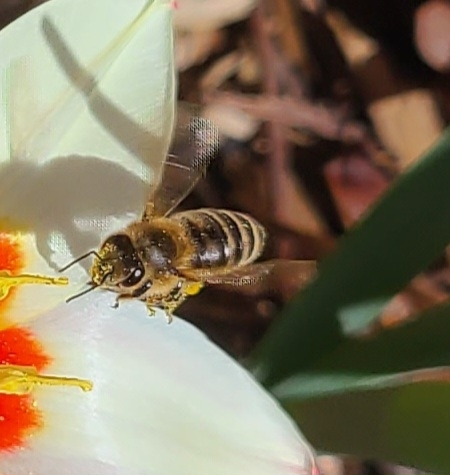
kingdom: Animalia
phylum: Arthropoda
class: Insecta
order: Hymenoptera
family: Apidae
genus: Apis
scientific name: Apis mellifera
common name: Honey bee
